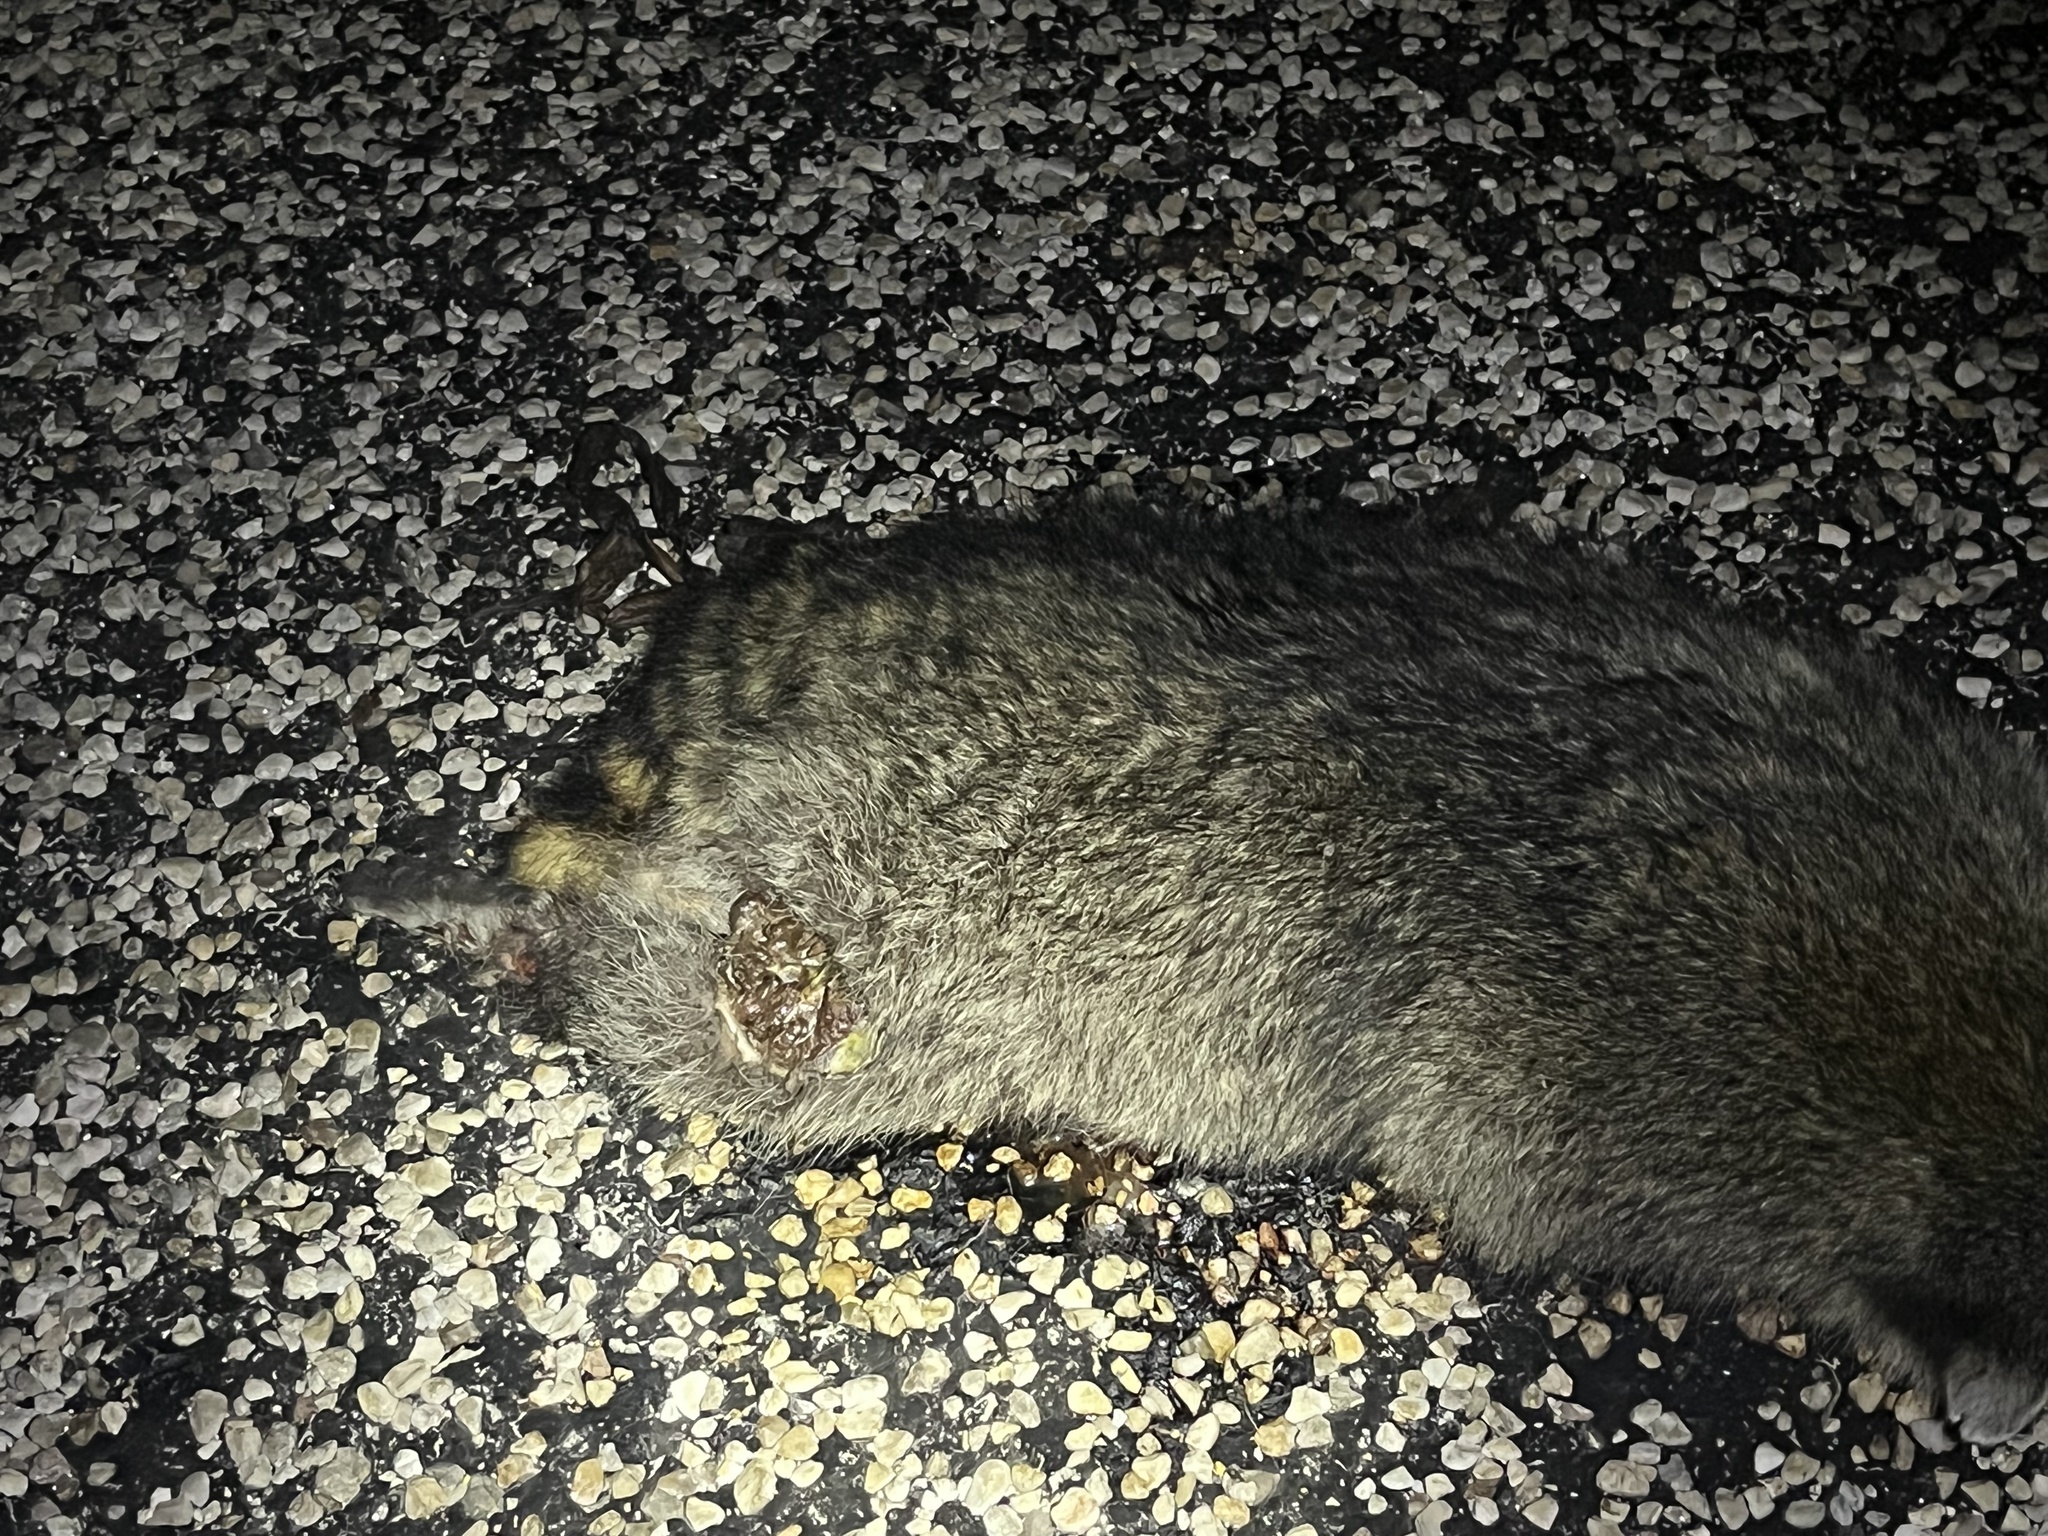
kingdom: Animalia
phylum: Chordata
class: Mammalia
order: Carnivora
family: Procyonidae
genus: Procyon
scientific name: Procyon lotor
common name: Raccoon
